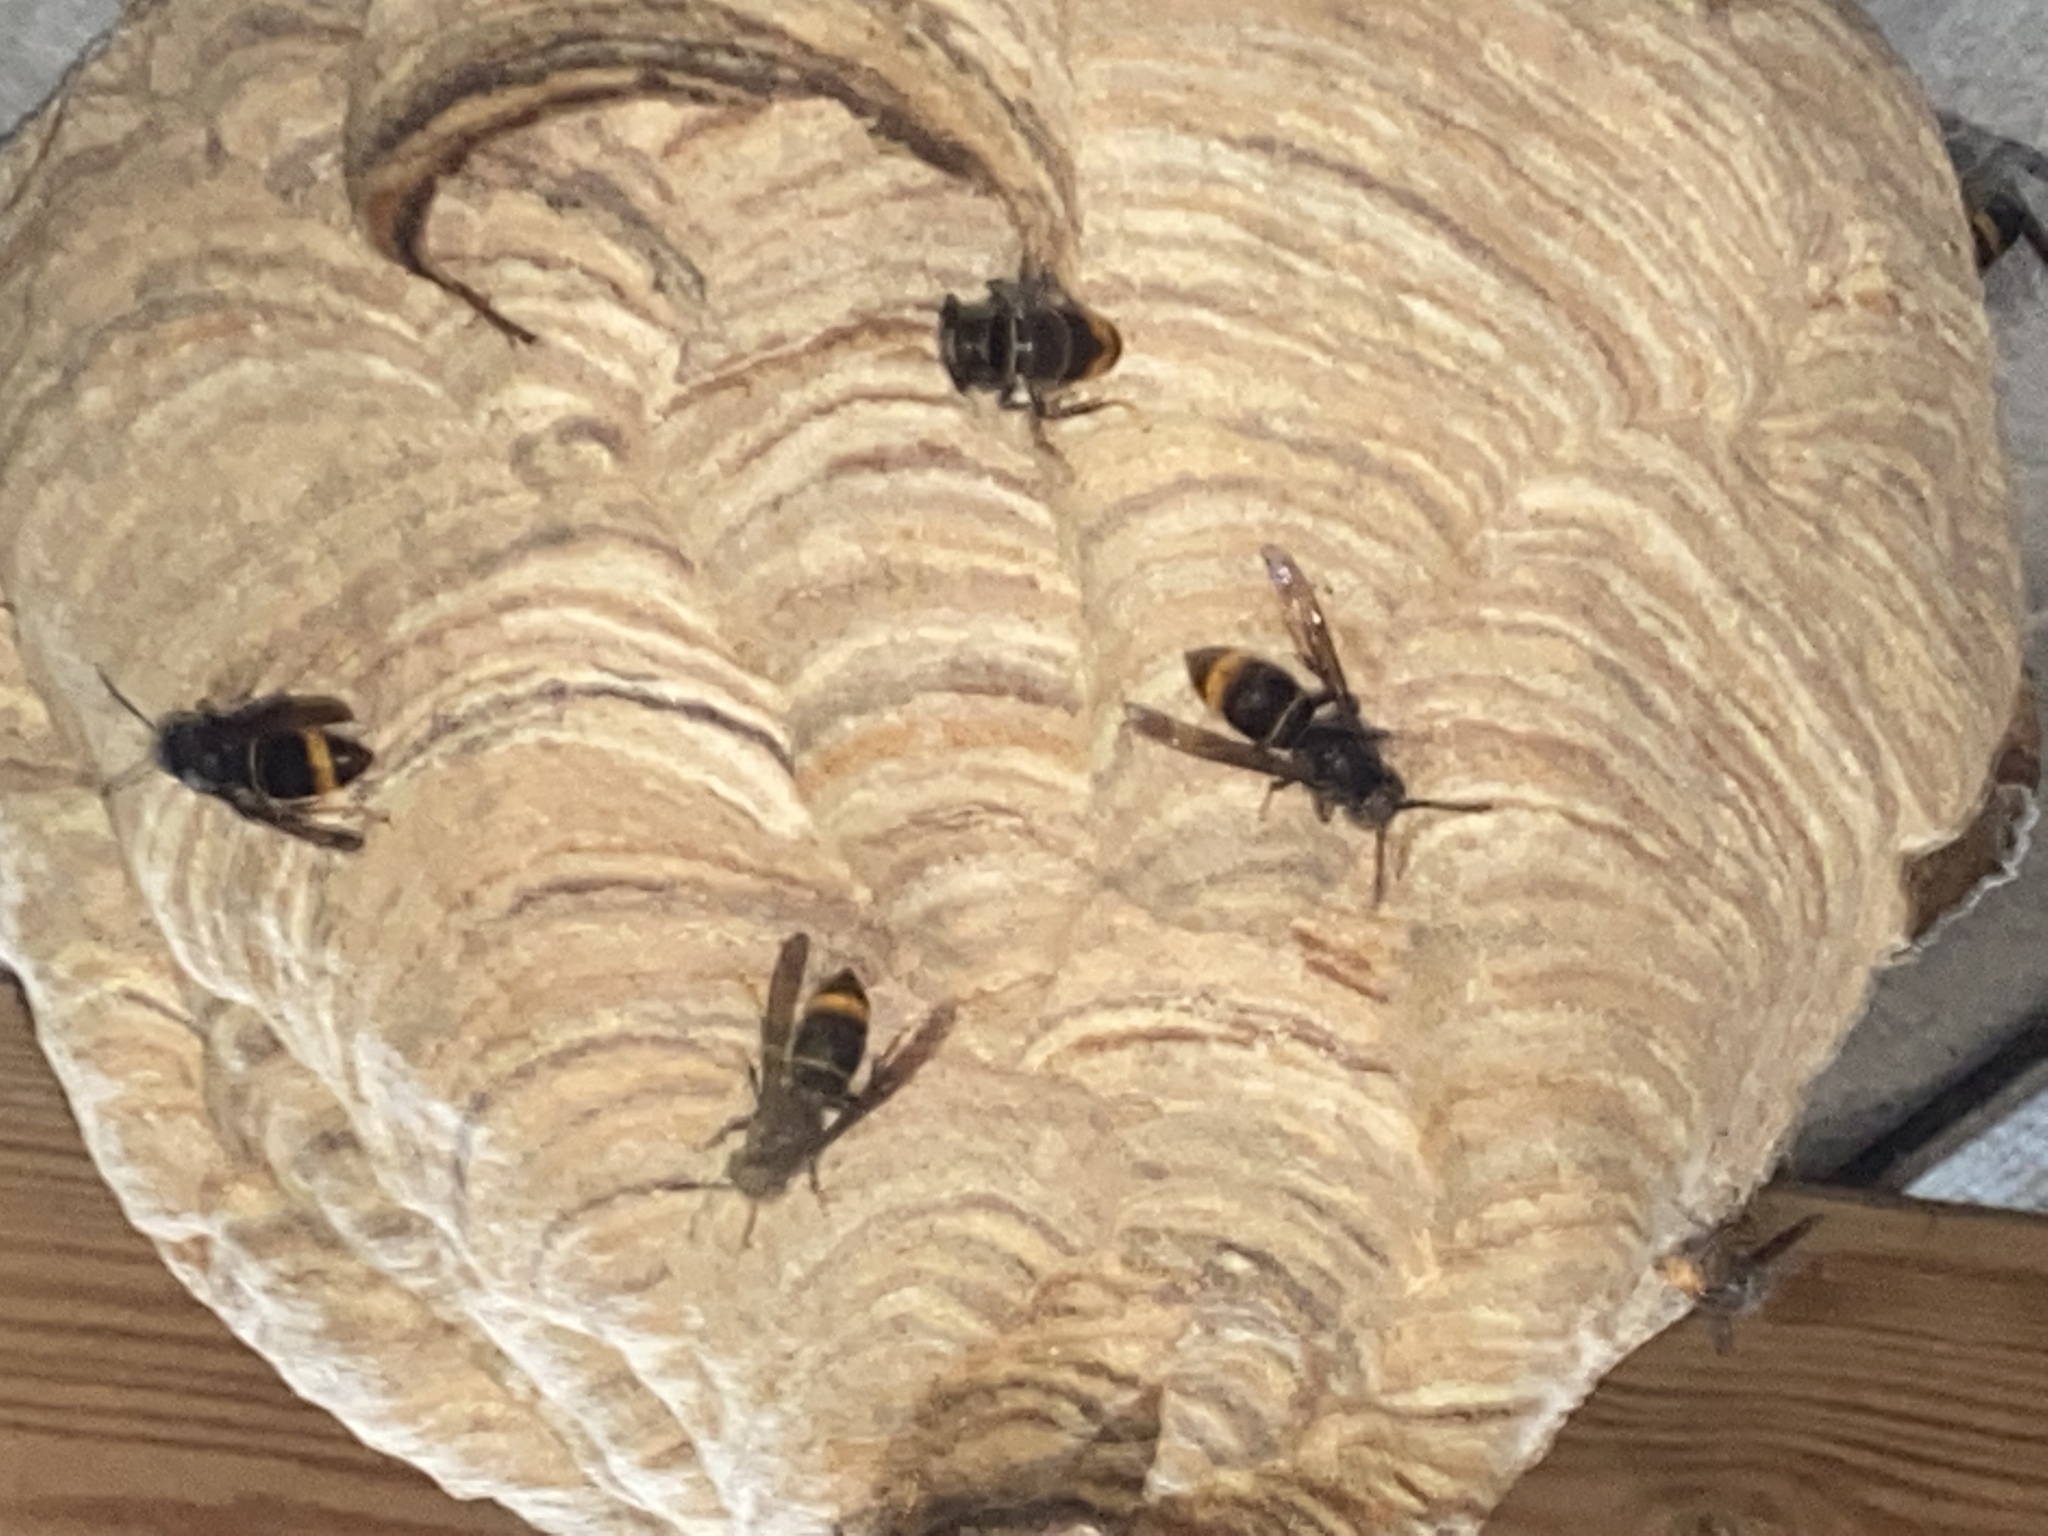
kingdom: Animalia
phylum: Arthropoda
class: Insecta
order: Hymenoptera
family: Vespidae
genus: Vespa
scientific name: Vespa velutina
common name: Asian hornet
